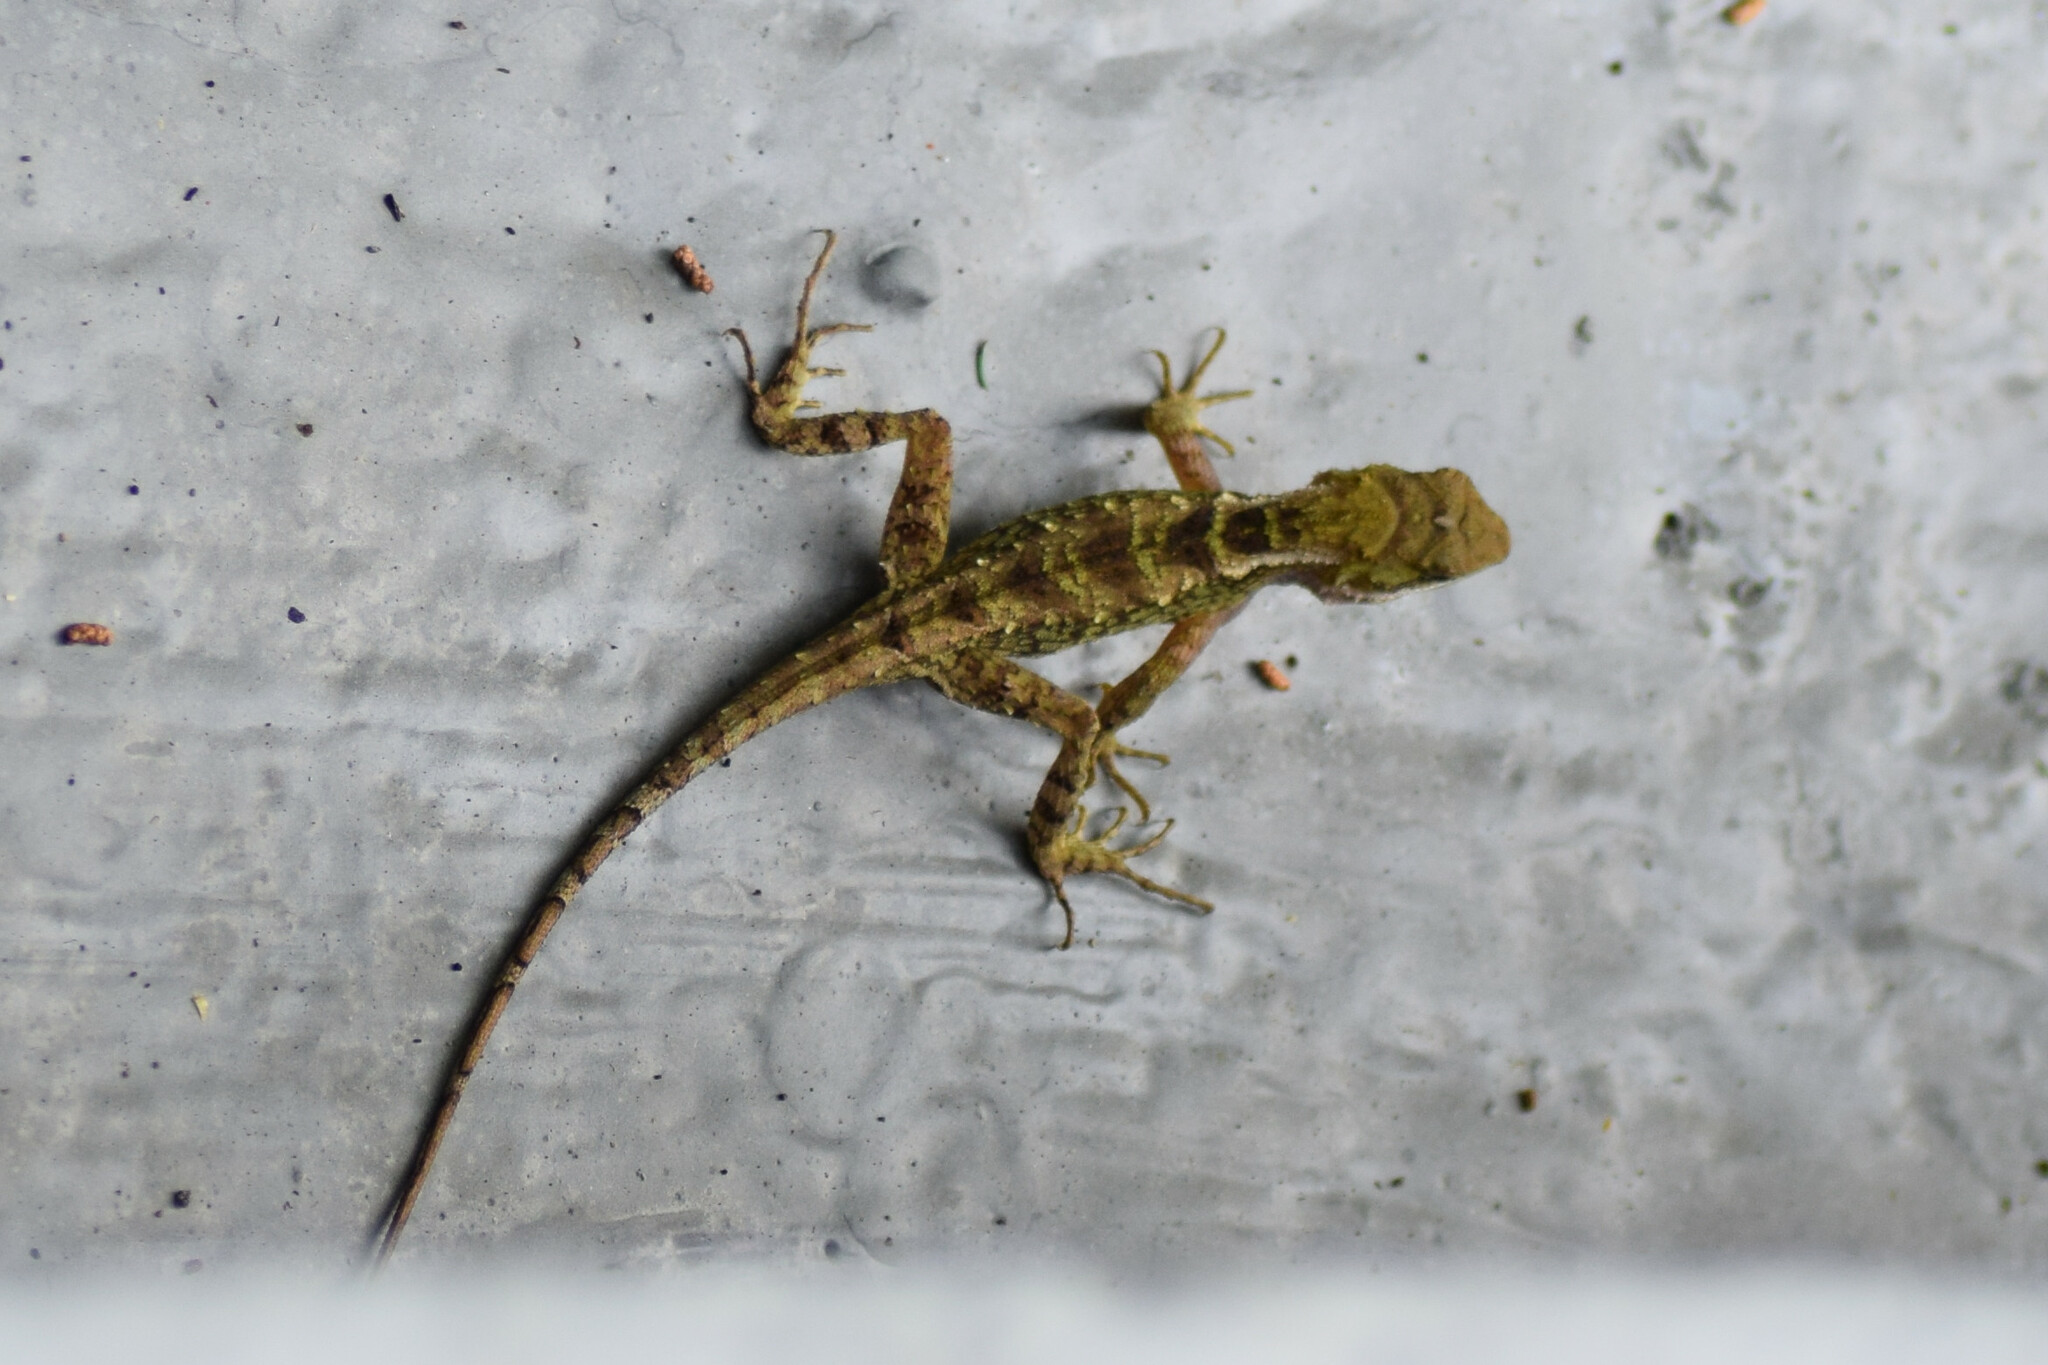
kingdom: Animalia
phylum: Chordata
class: Squamata
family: Agamidae
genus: Japalura
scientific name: Japalura variegata
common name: East himalayan mountain lizard
